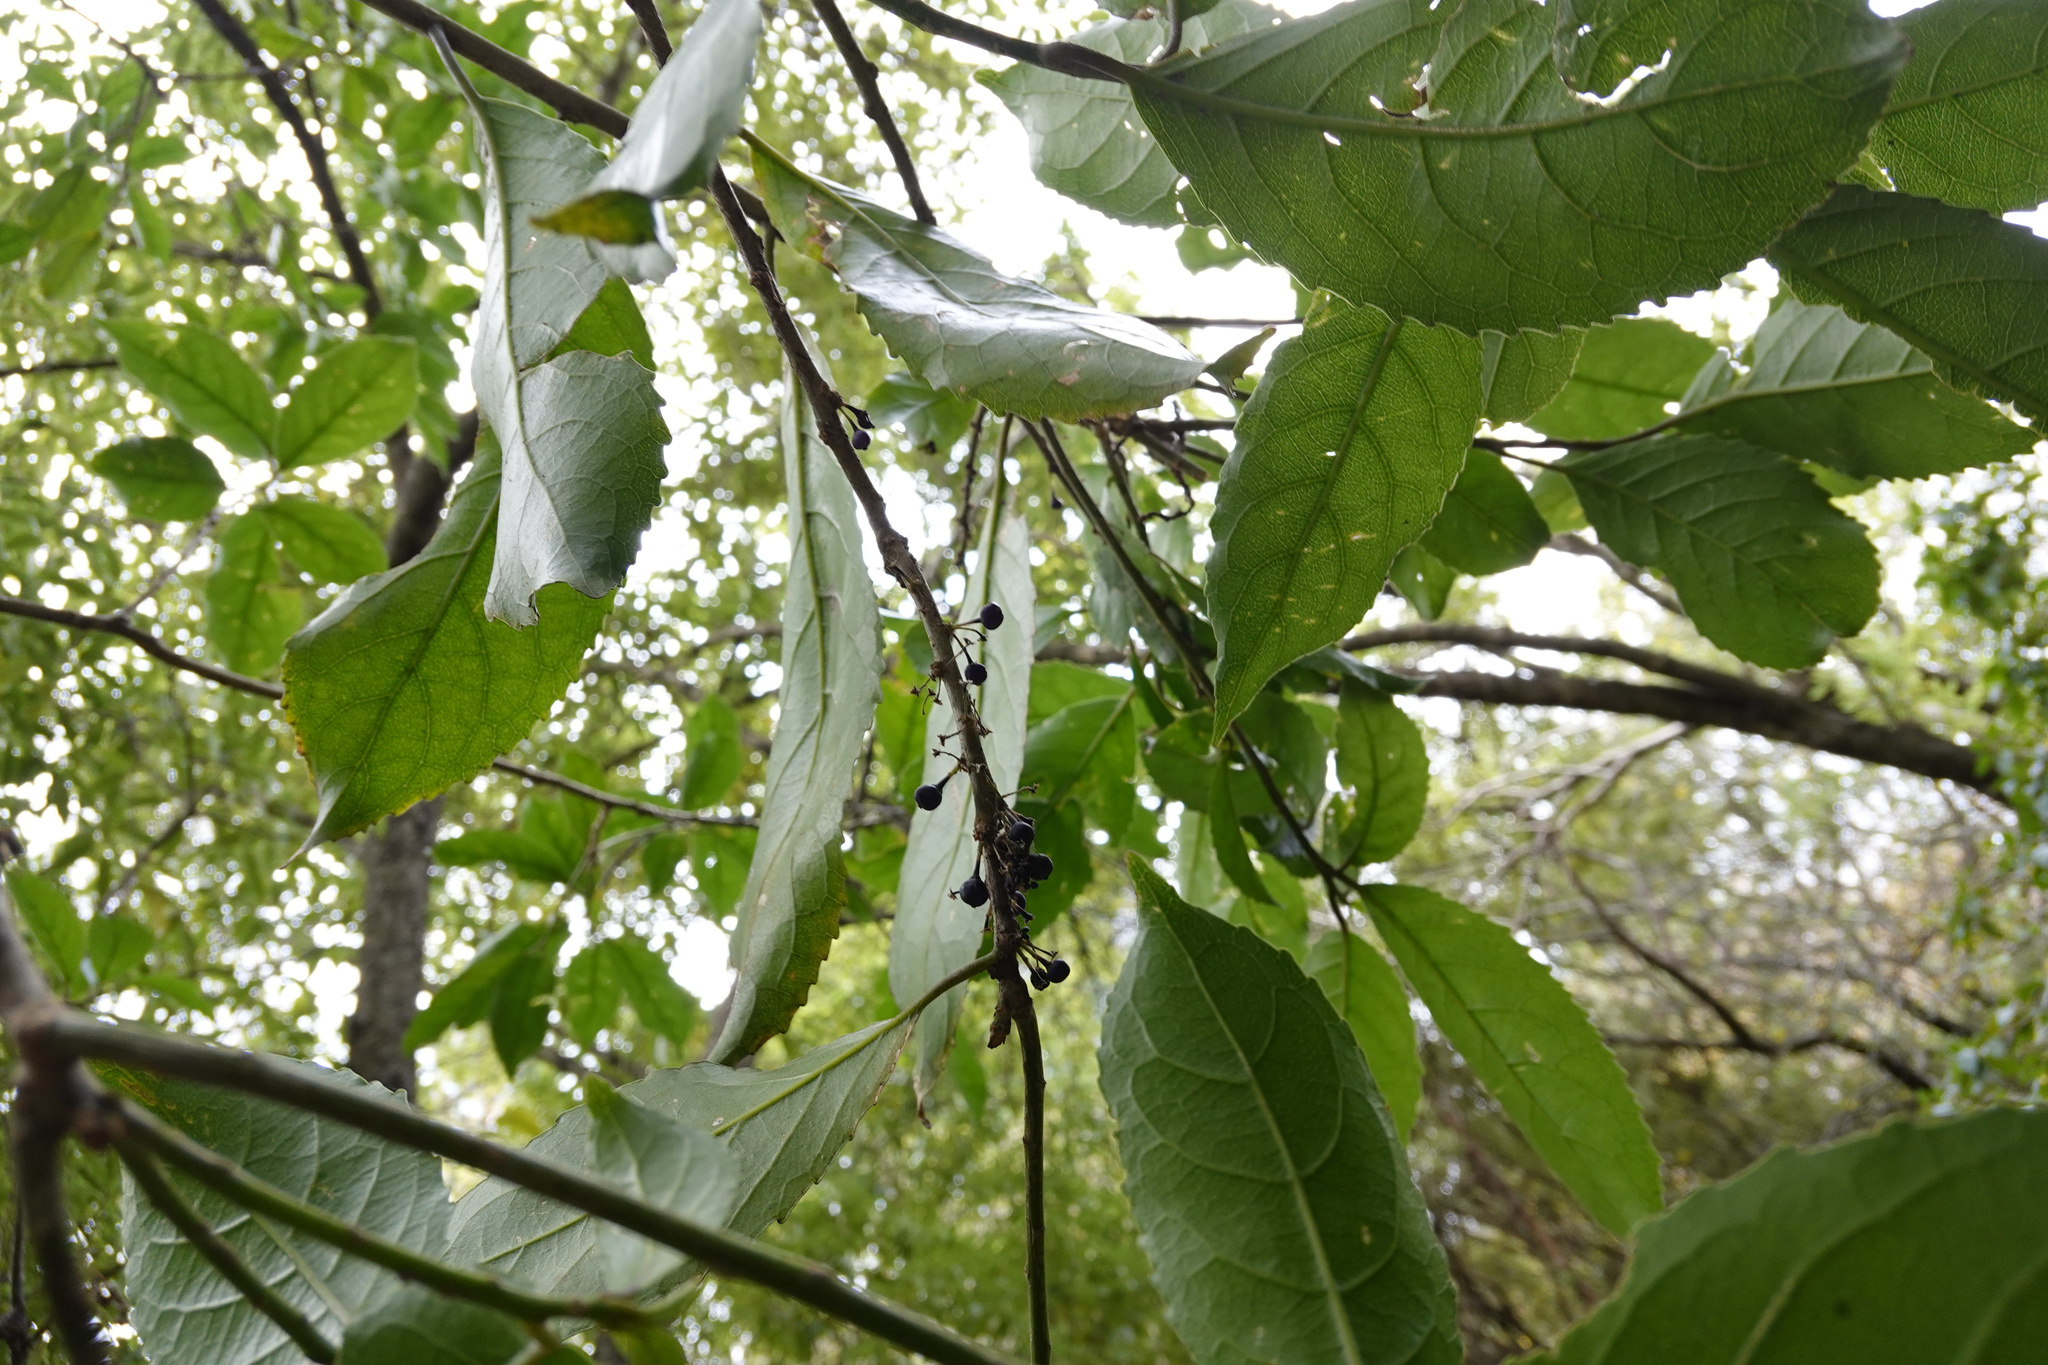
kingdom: Plantae
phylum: Tracheophyta
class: Magnoliopsida
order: Malpighiales
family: Violaceae
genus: Melicytus
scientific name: Melicytus ramiflorus
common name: Mahoe
